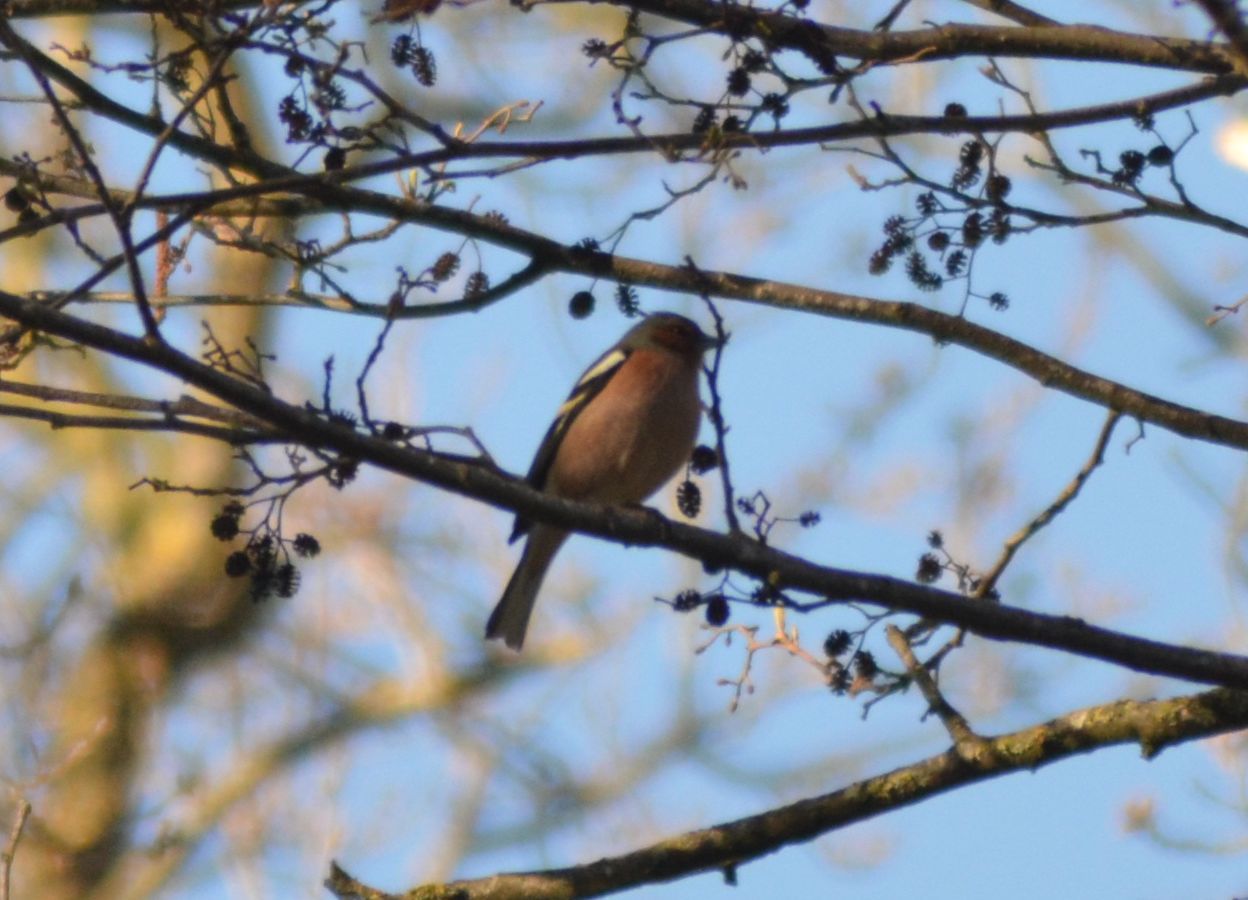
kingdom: Animalia
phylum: Chordata
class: Aves
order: Passeriformes
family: Fringillidae
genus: Fringilla
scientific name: Fringilla coelebs
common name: Common chaffinch
